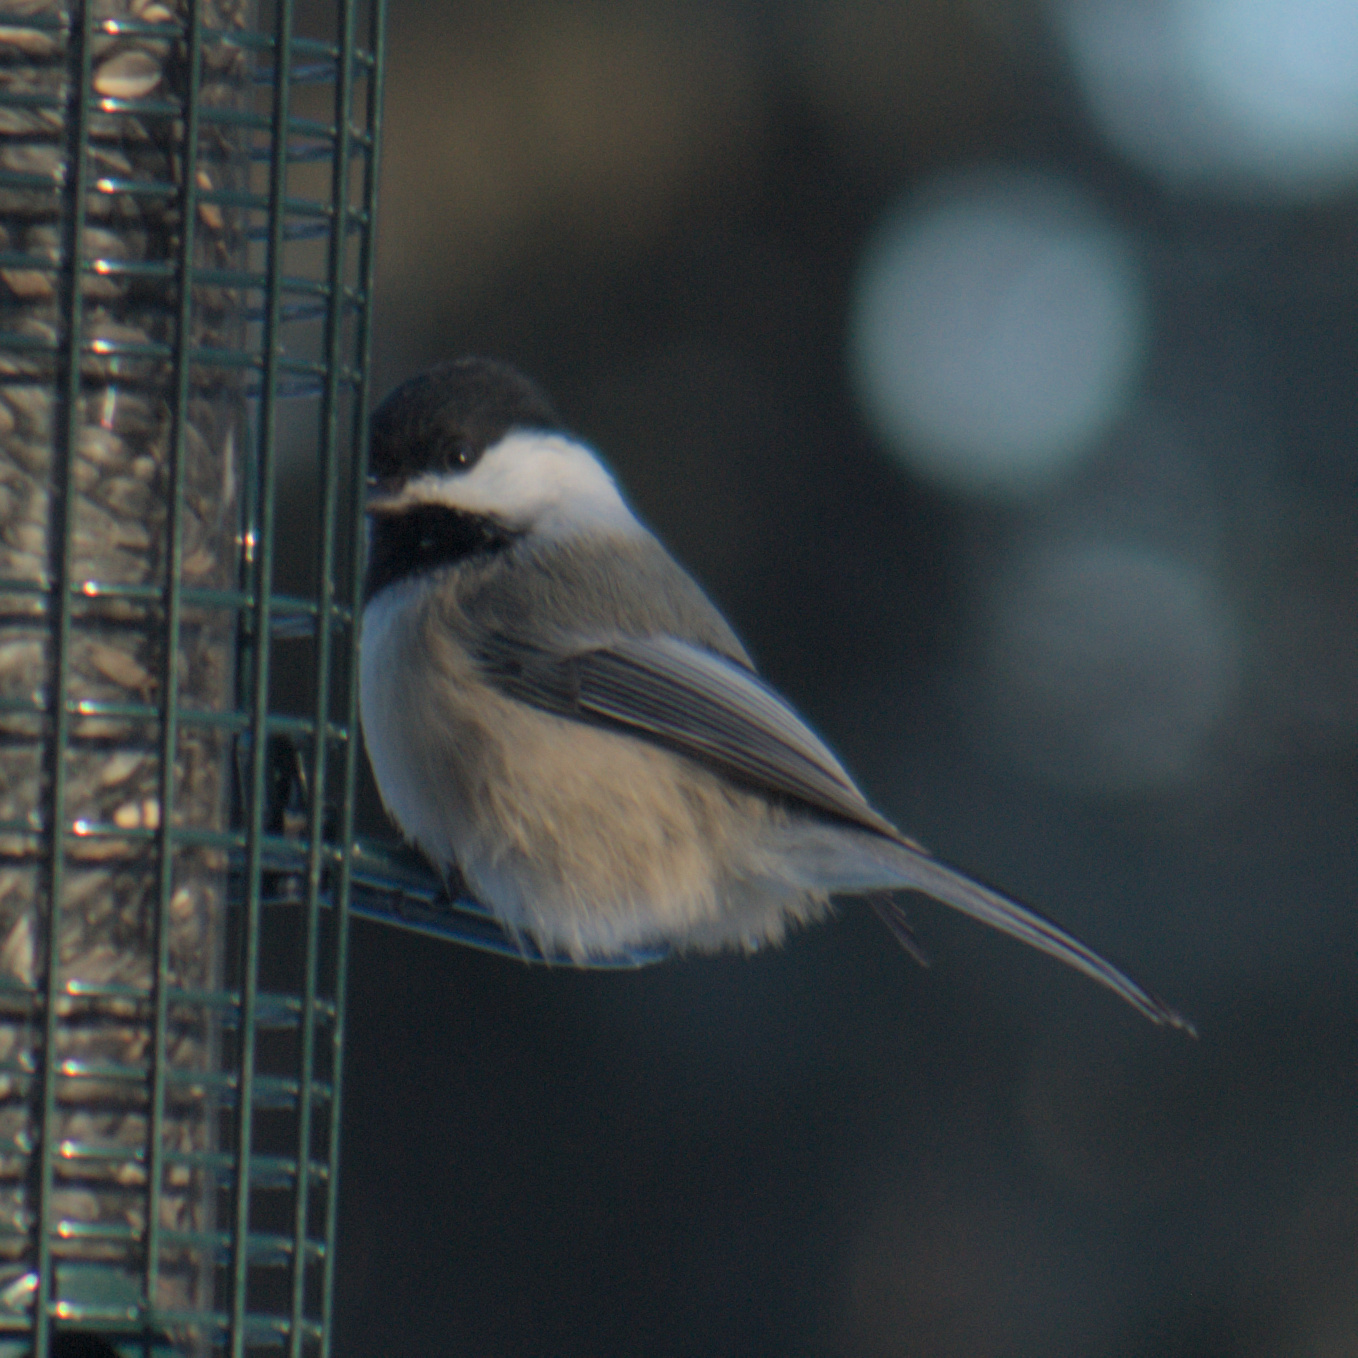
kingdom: Animalia
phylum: Chordata
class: Aves
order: Passeriformes
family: Paridae
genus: Poecile
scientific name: Poecile atricapillus
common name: Black-capped chickadee
